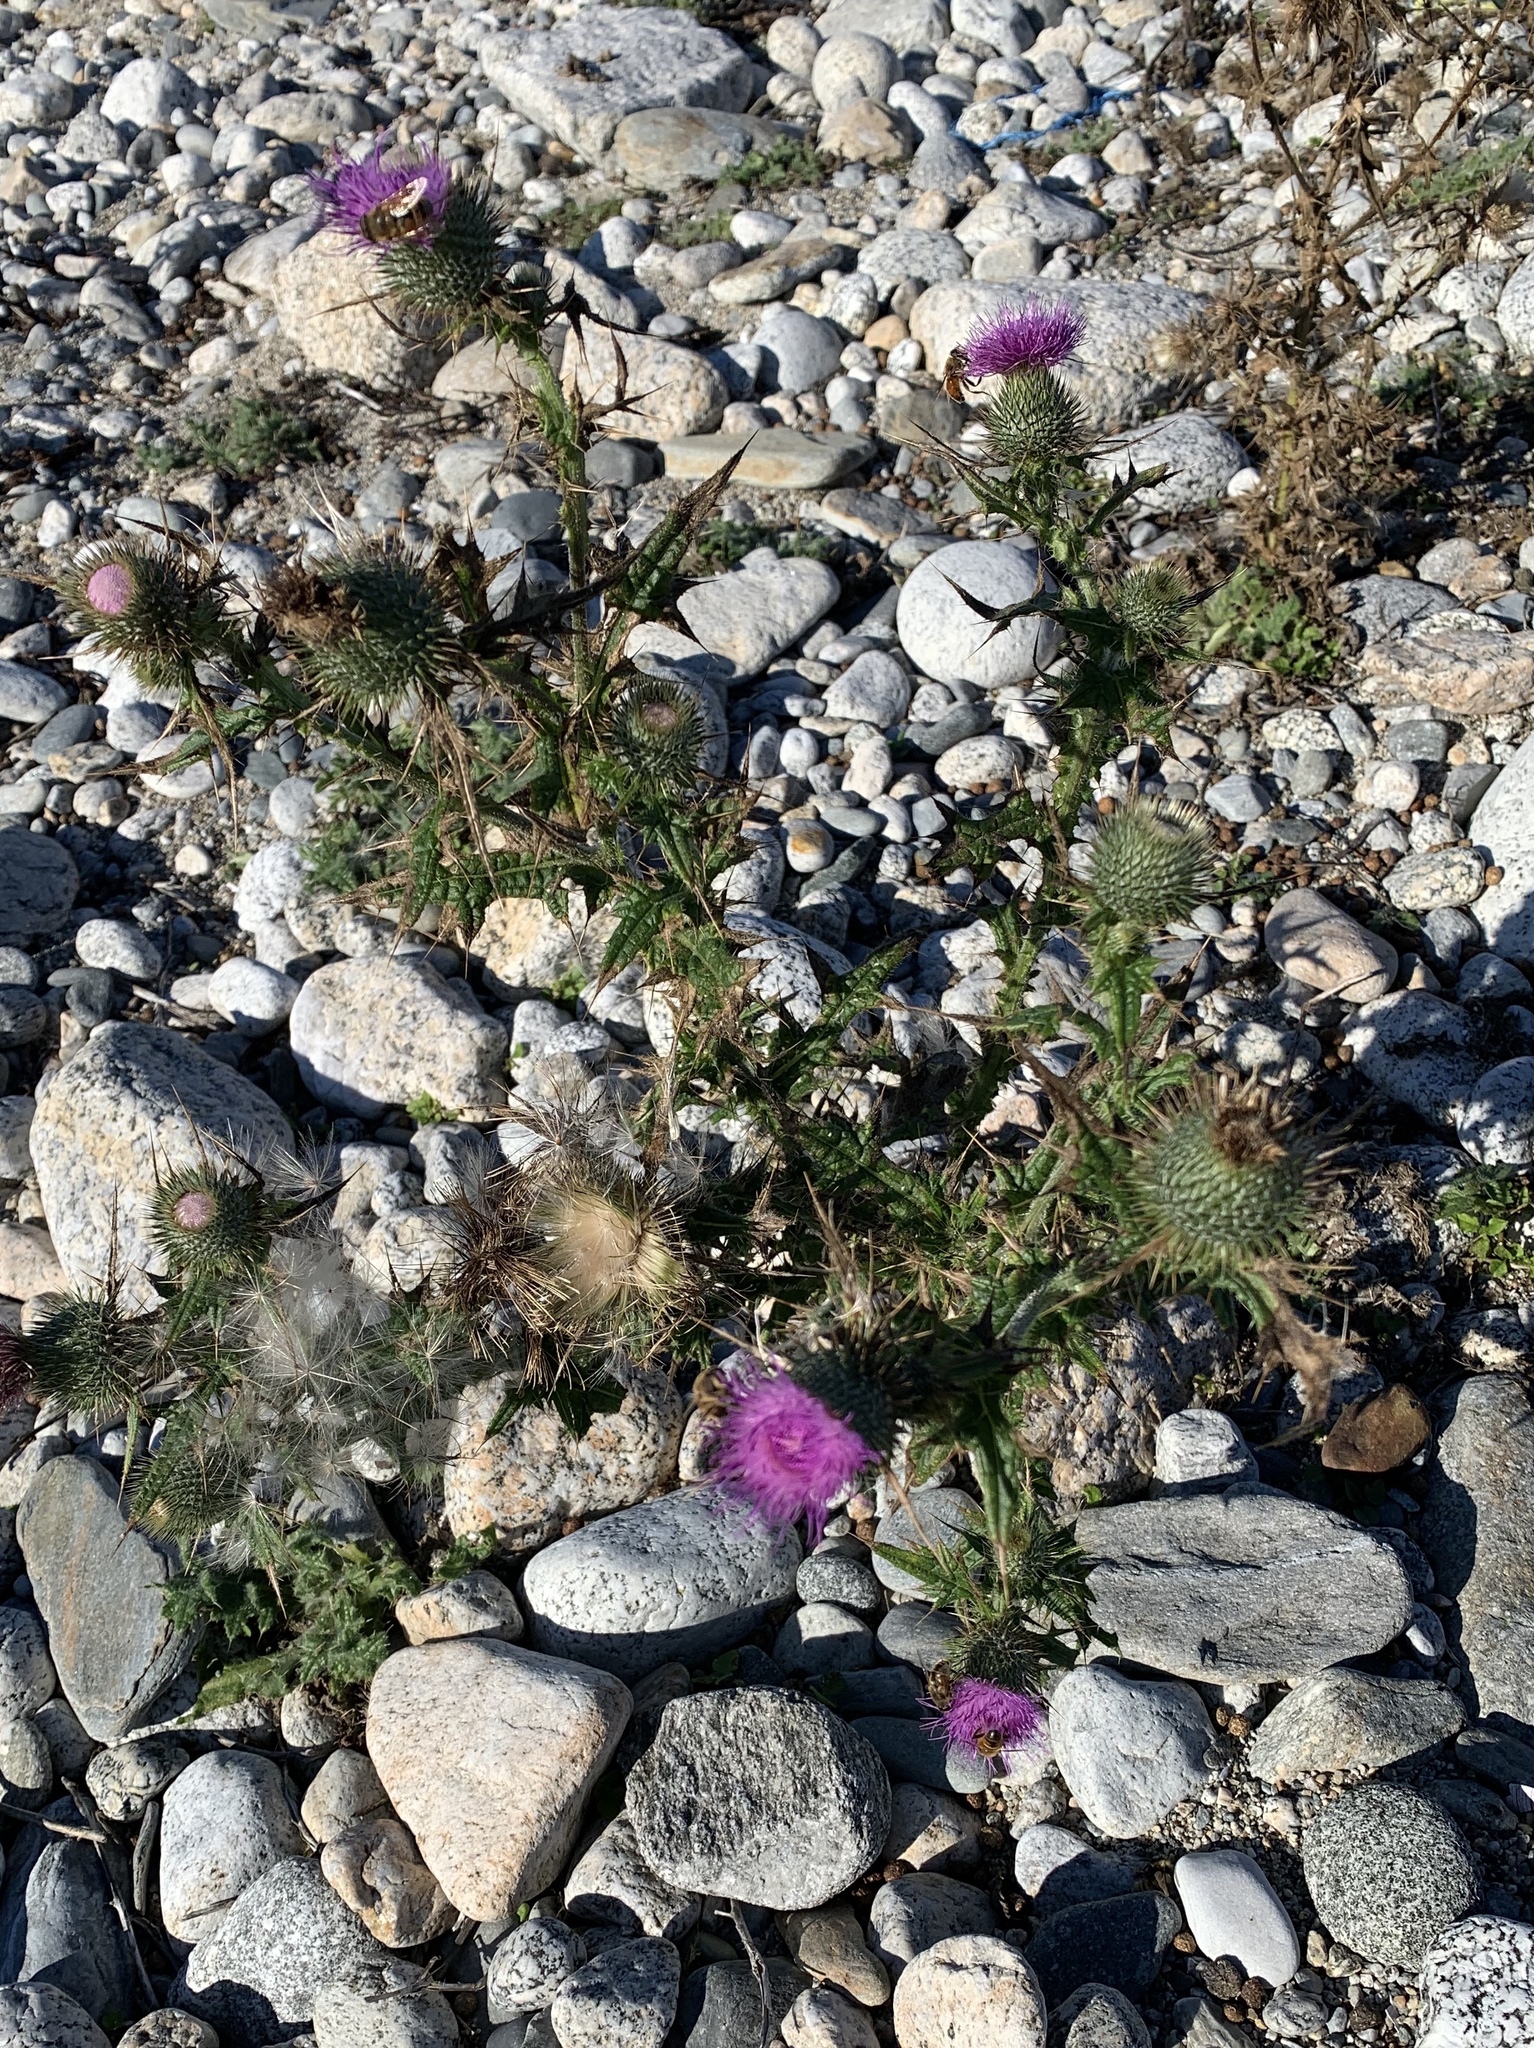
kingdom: Plantae
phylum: Tracheophyta
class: Magnoliopsida
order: Asterales
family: Asteraceae
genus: Cirsium
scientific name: Cirsium vulgare
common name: Bull thistle
